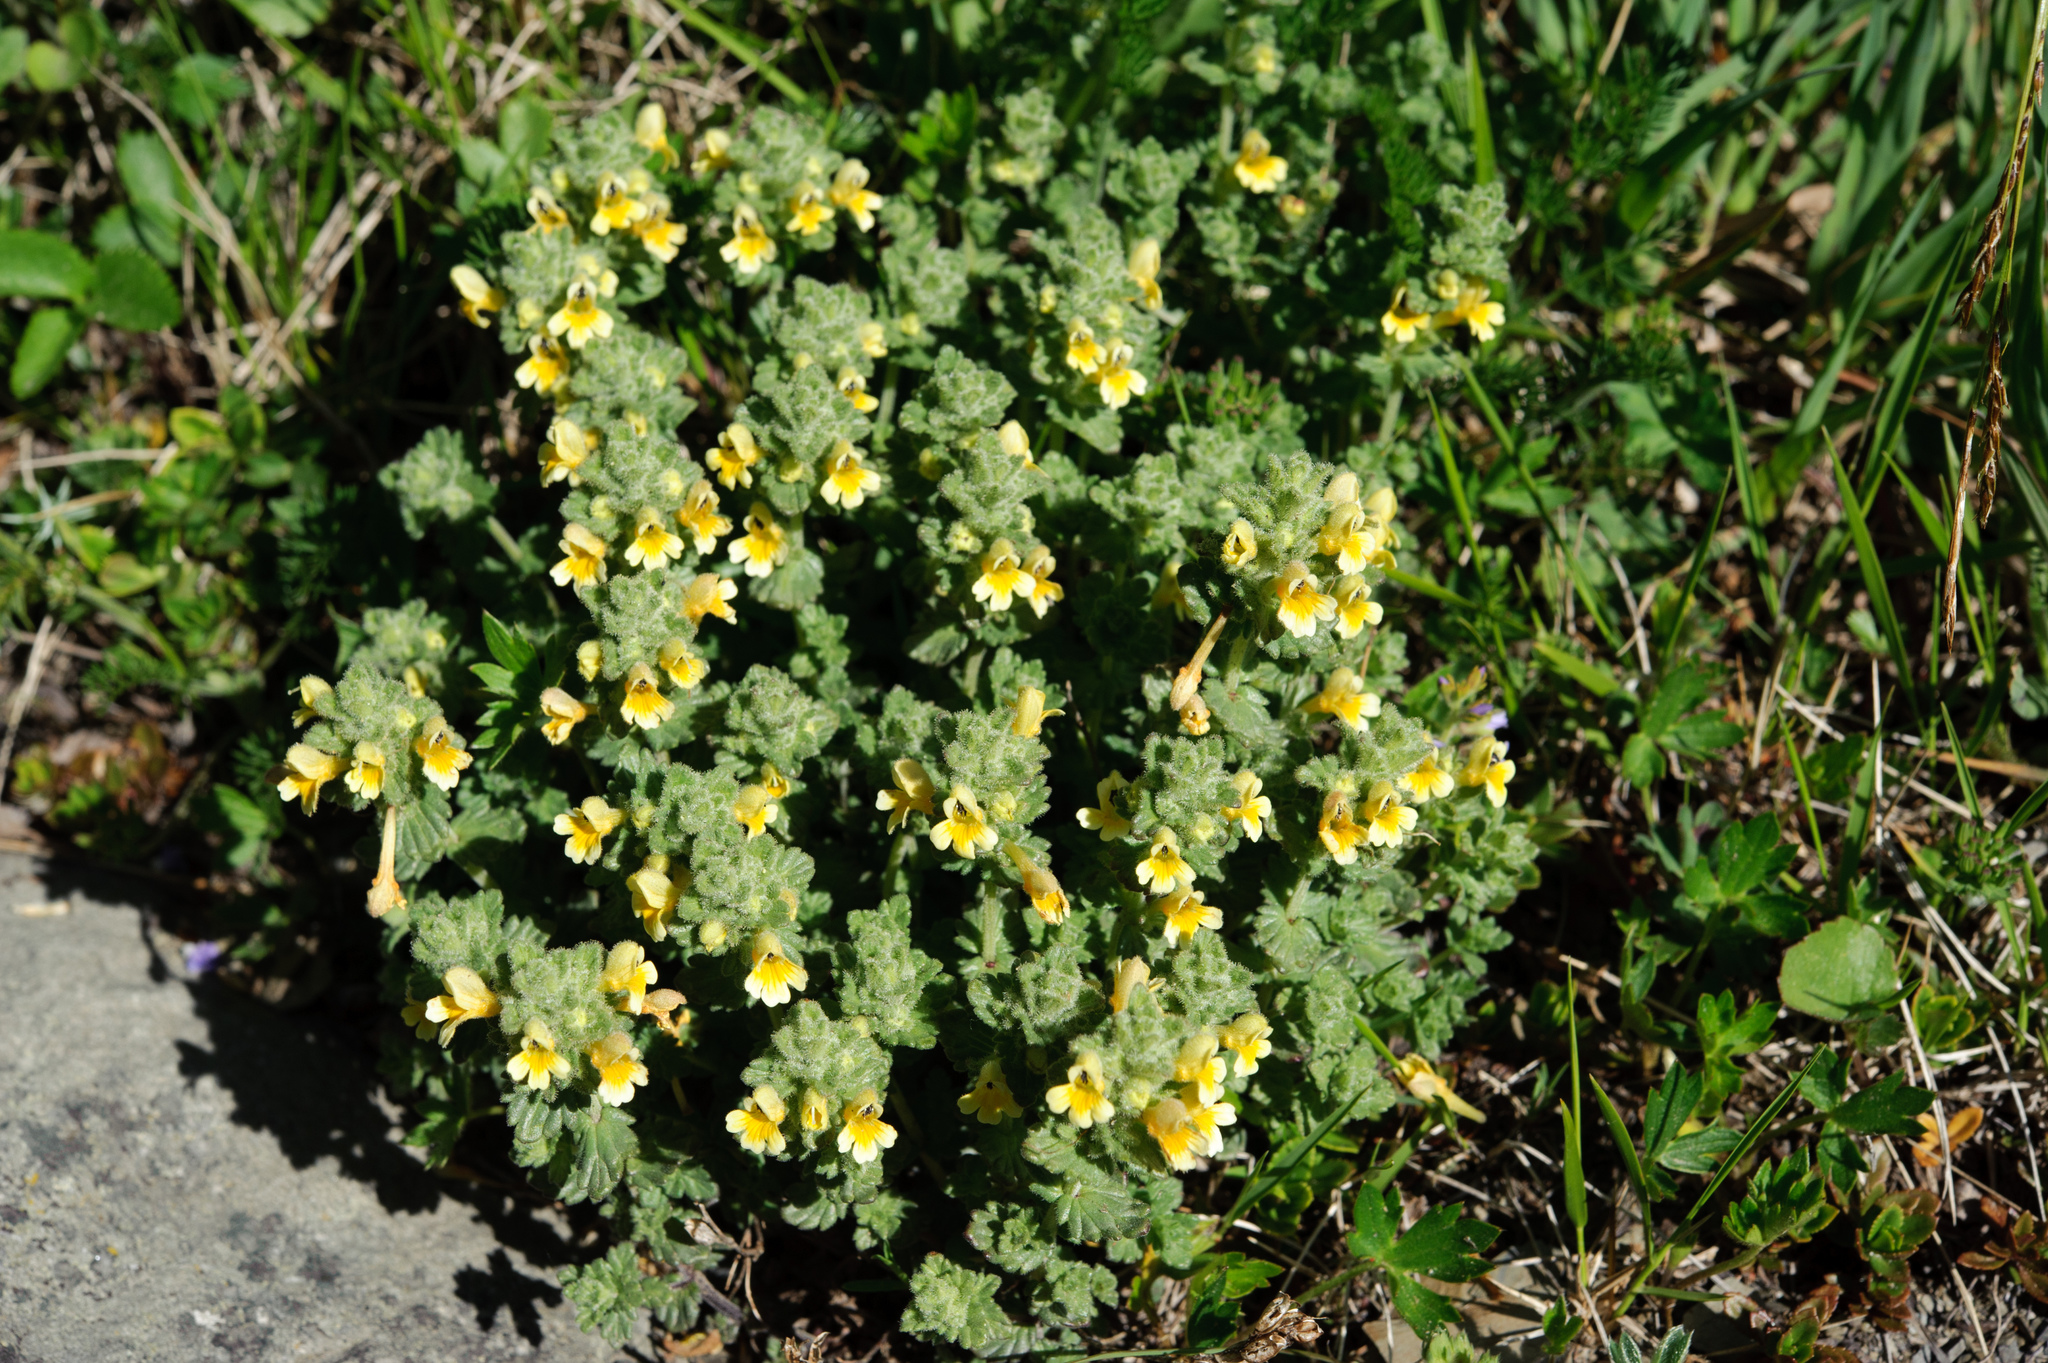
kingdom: Plantae
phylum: Tracheophyta
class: Magnoliopsida
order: Lamiales
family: Orobanchaceae
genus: Euphrasia
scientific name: Euphrasia nankotaizanensis
